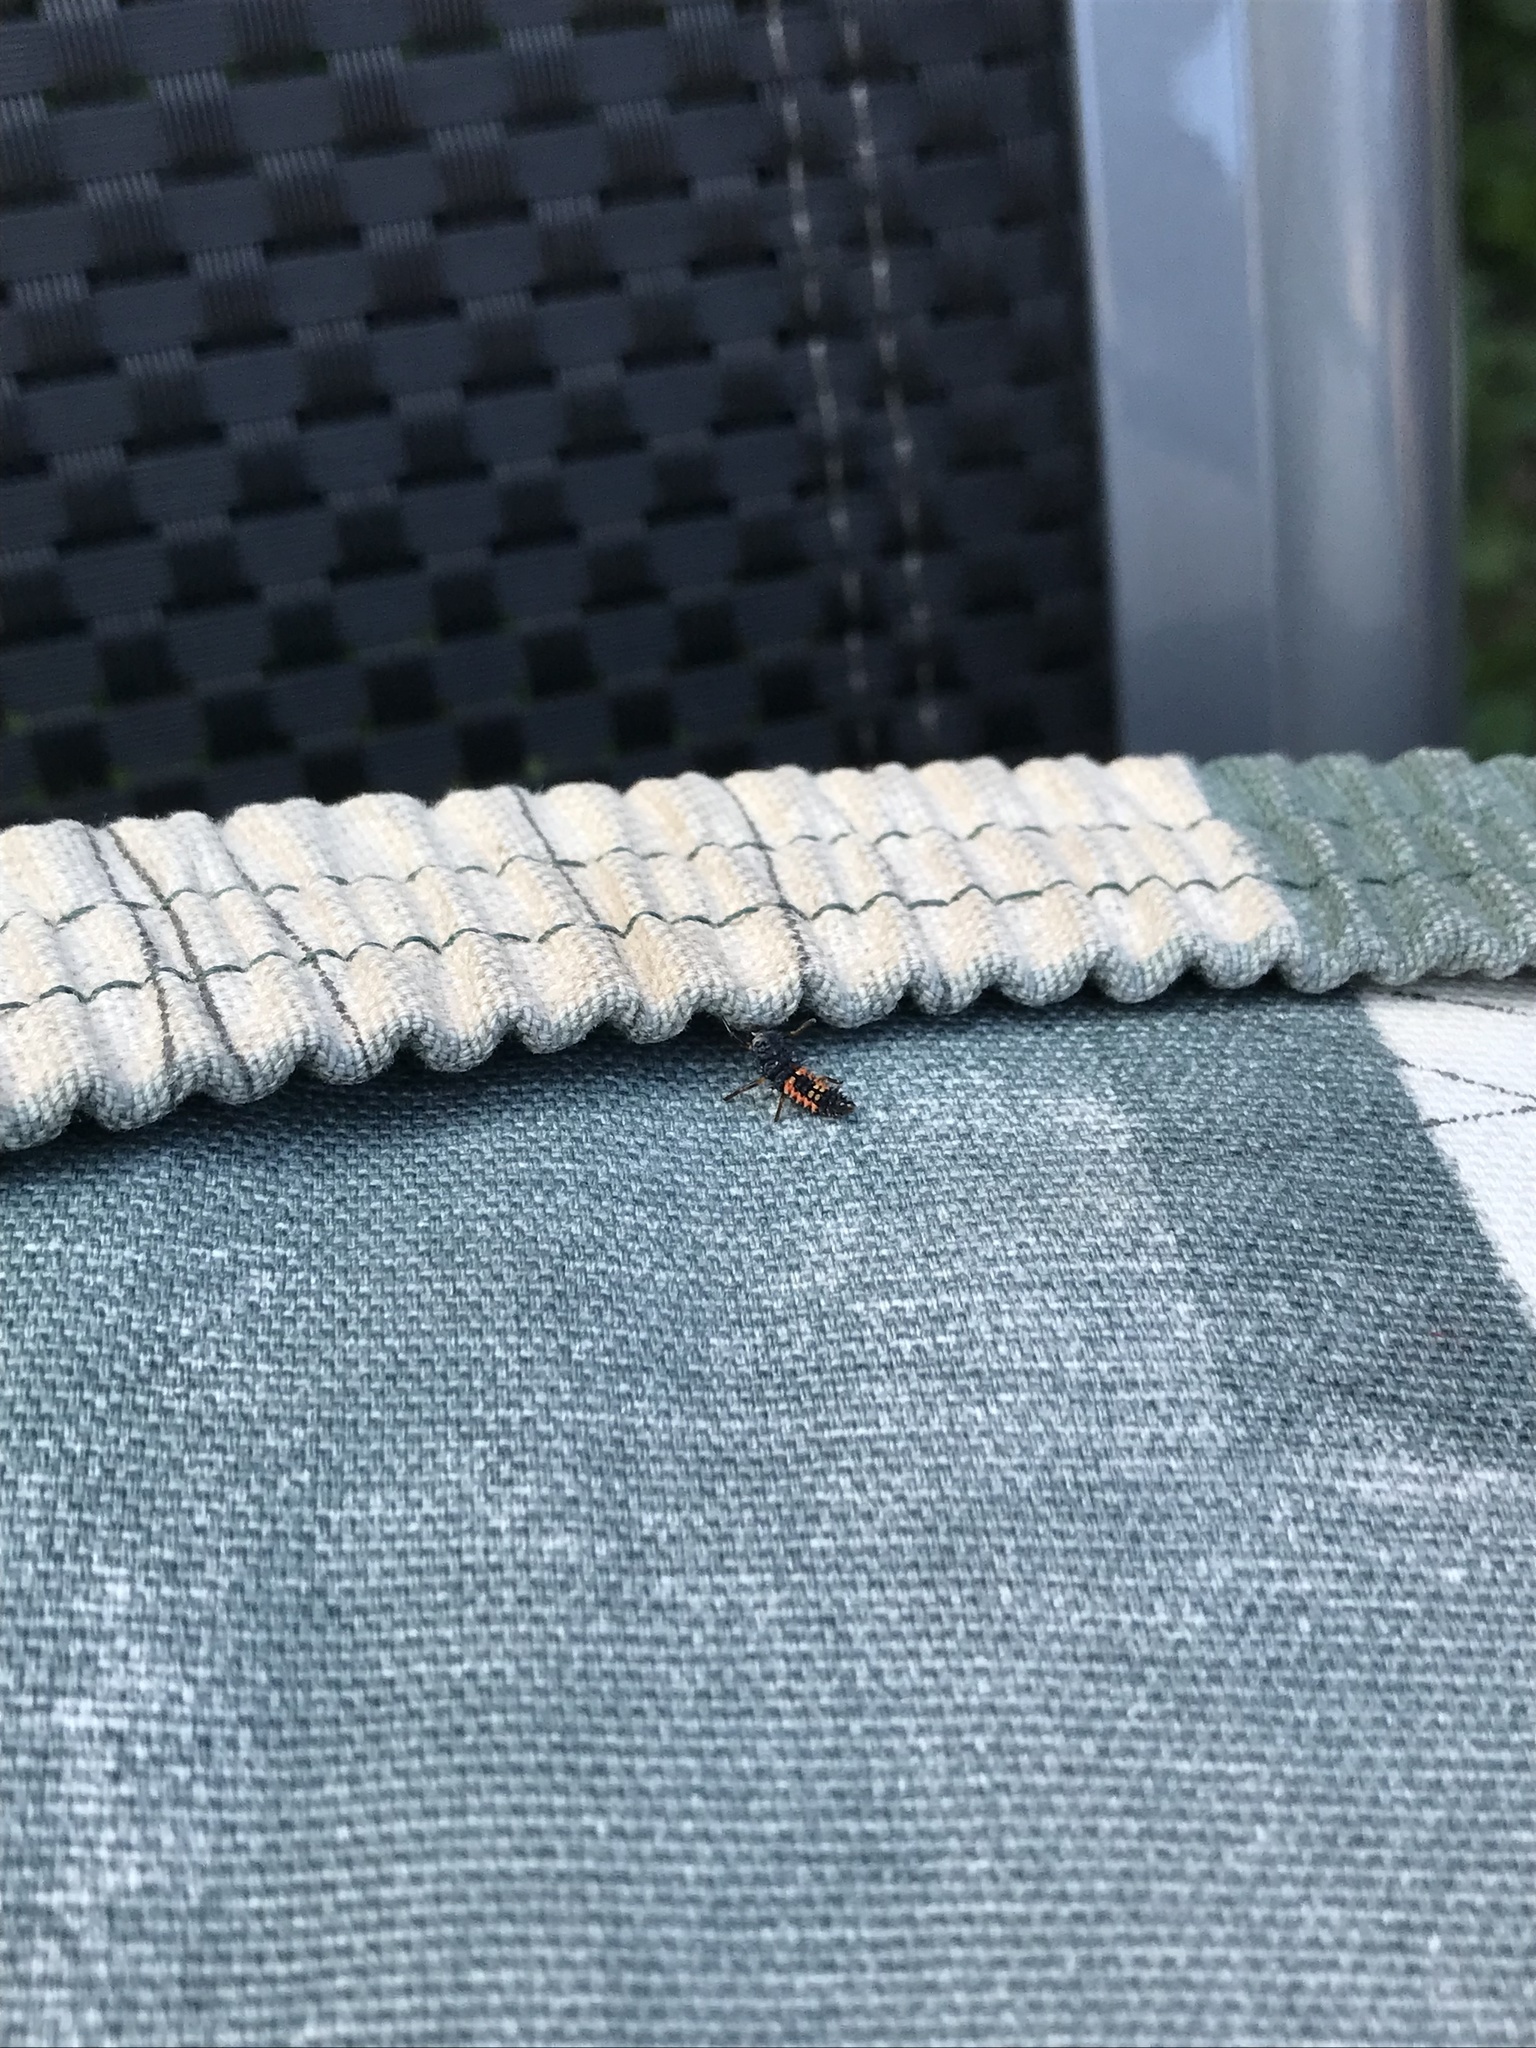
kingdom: Animalia
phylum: Arthropoda
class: Insecta
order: Coleoptera
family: Coccinellidae
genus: Harmonia
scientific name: Harmonia axyridis
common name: Harlequin ladybird
